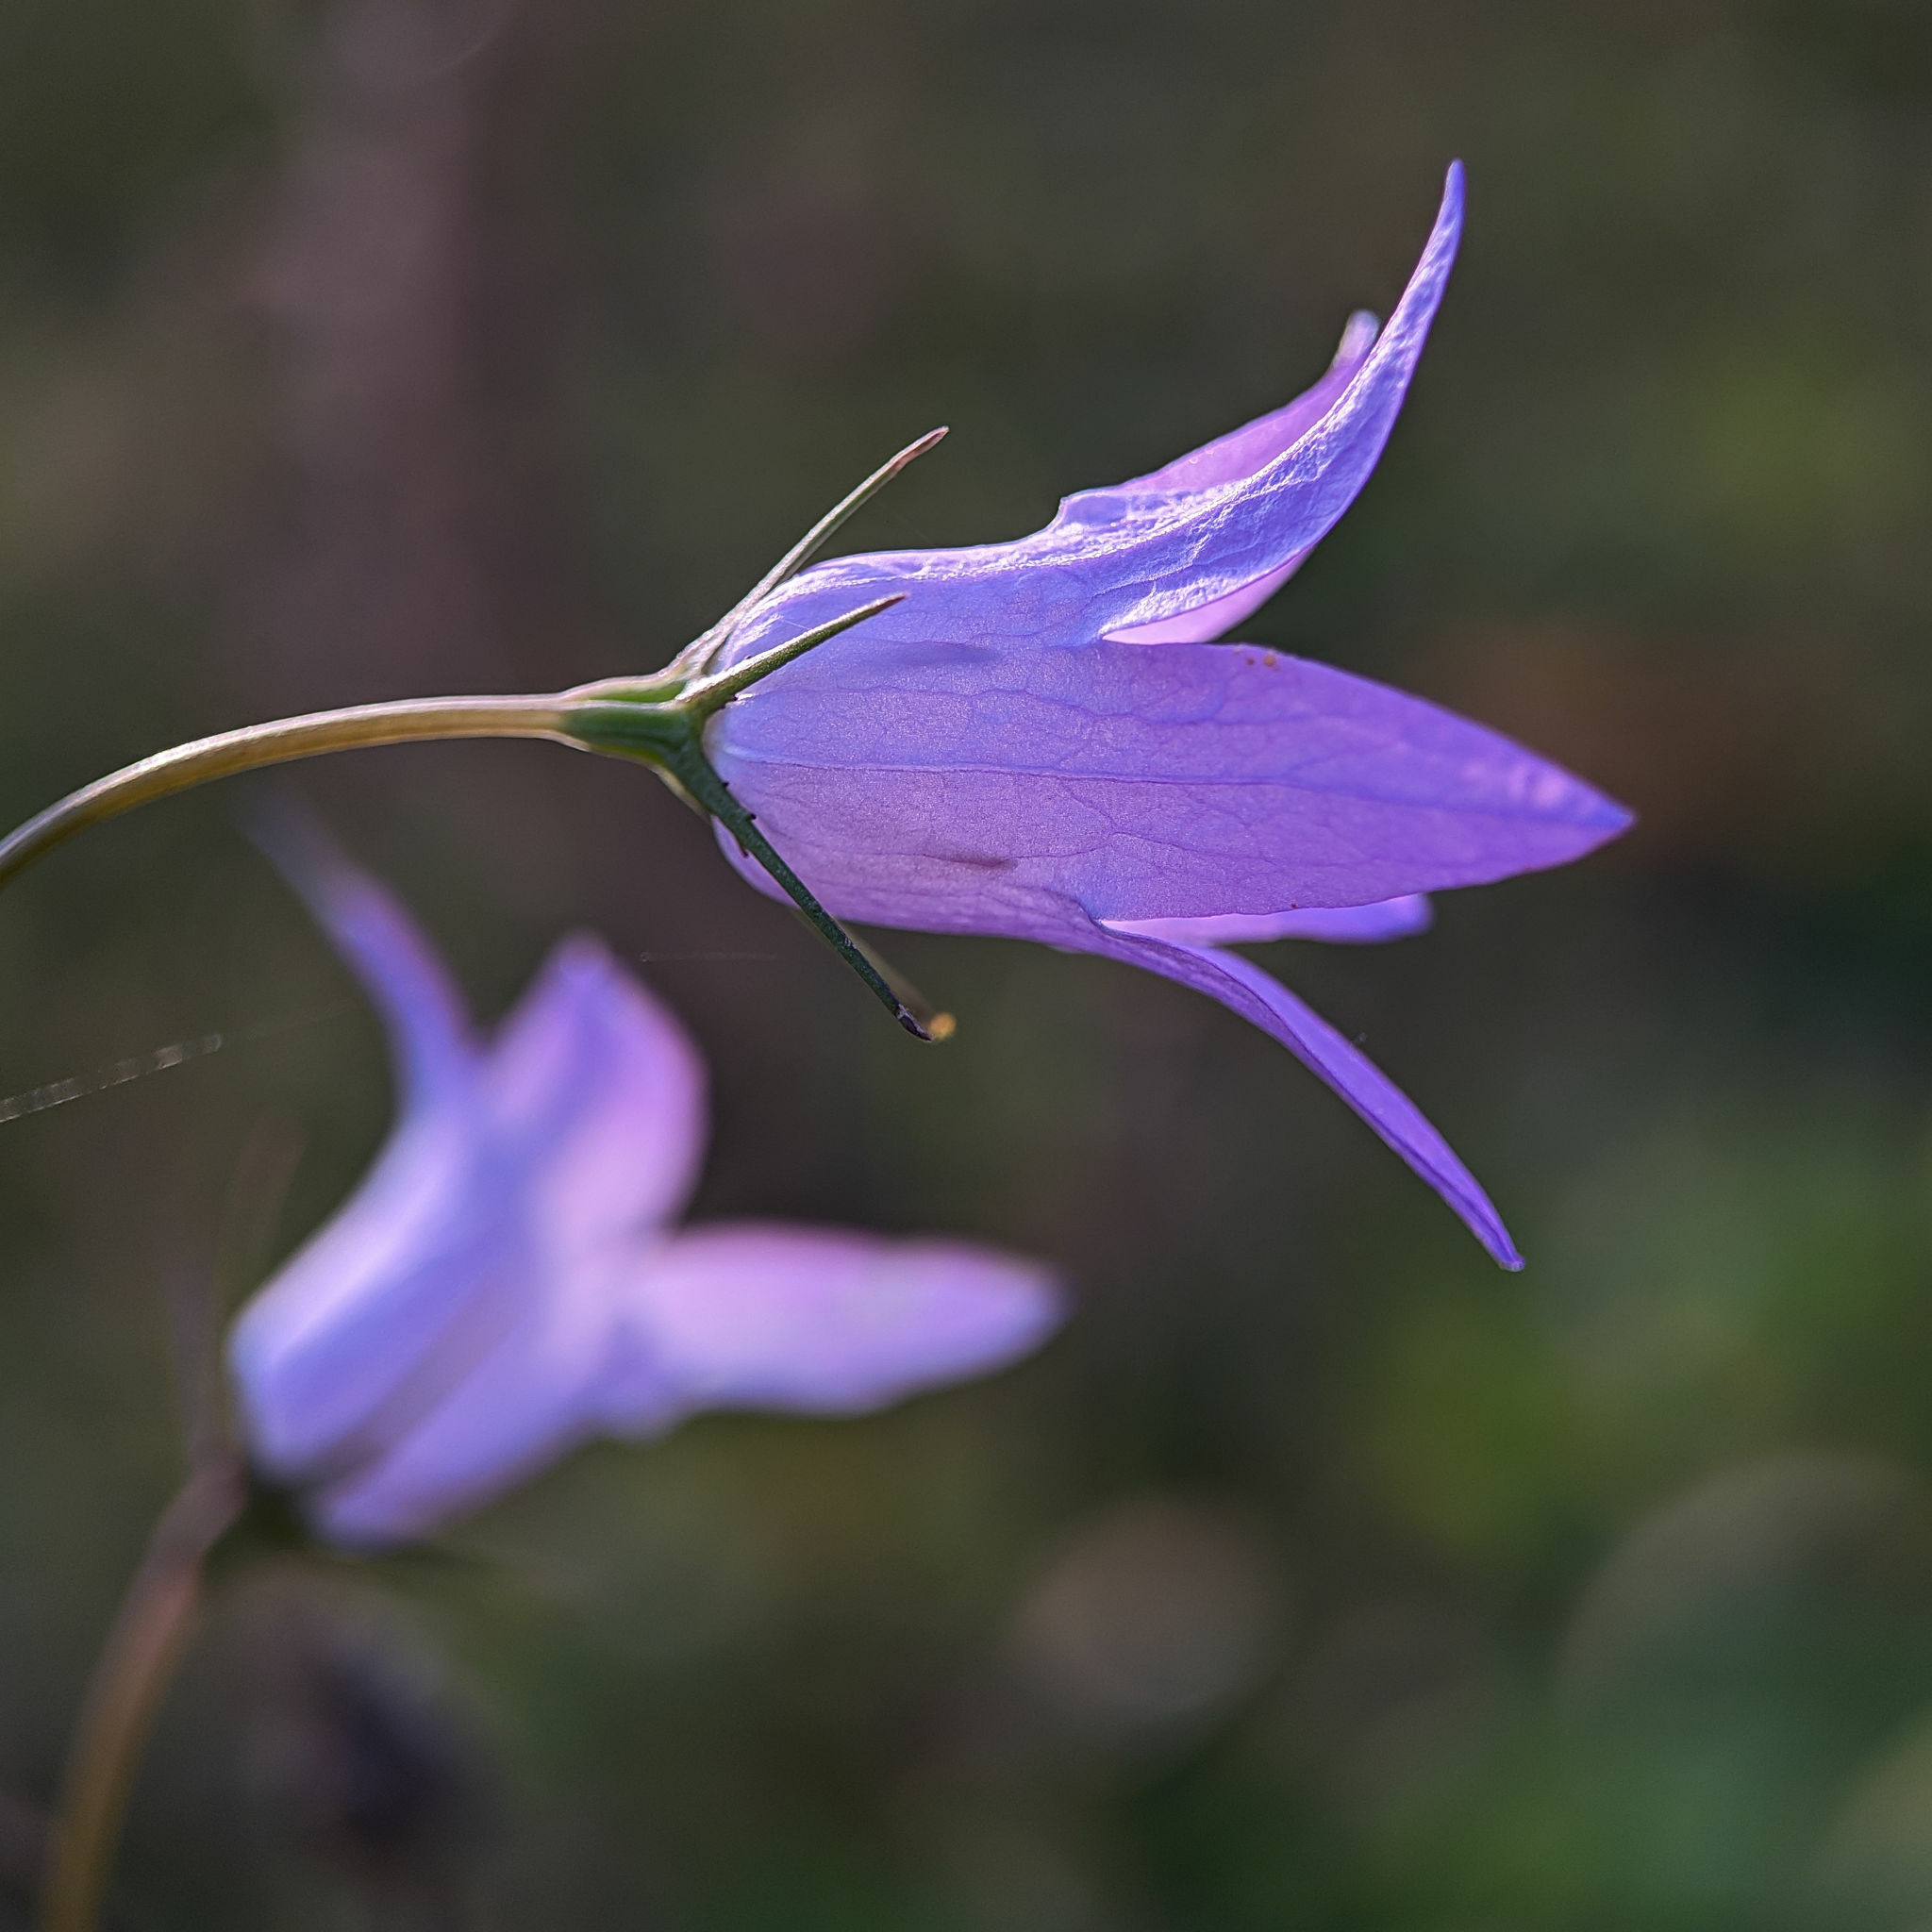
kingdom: Plantae
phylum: Tracheophyta
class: Magnoliopsida
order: Asterales
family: Campanulaceae
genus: Campanula
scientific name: Campanula rapunculus
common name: Rampion bellflower
